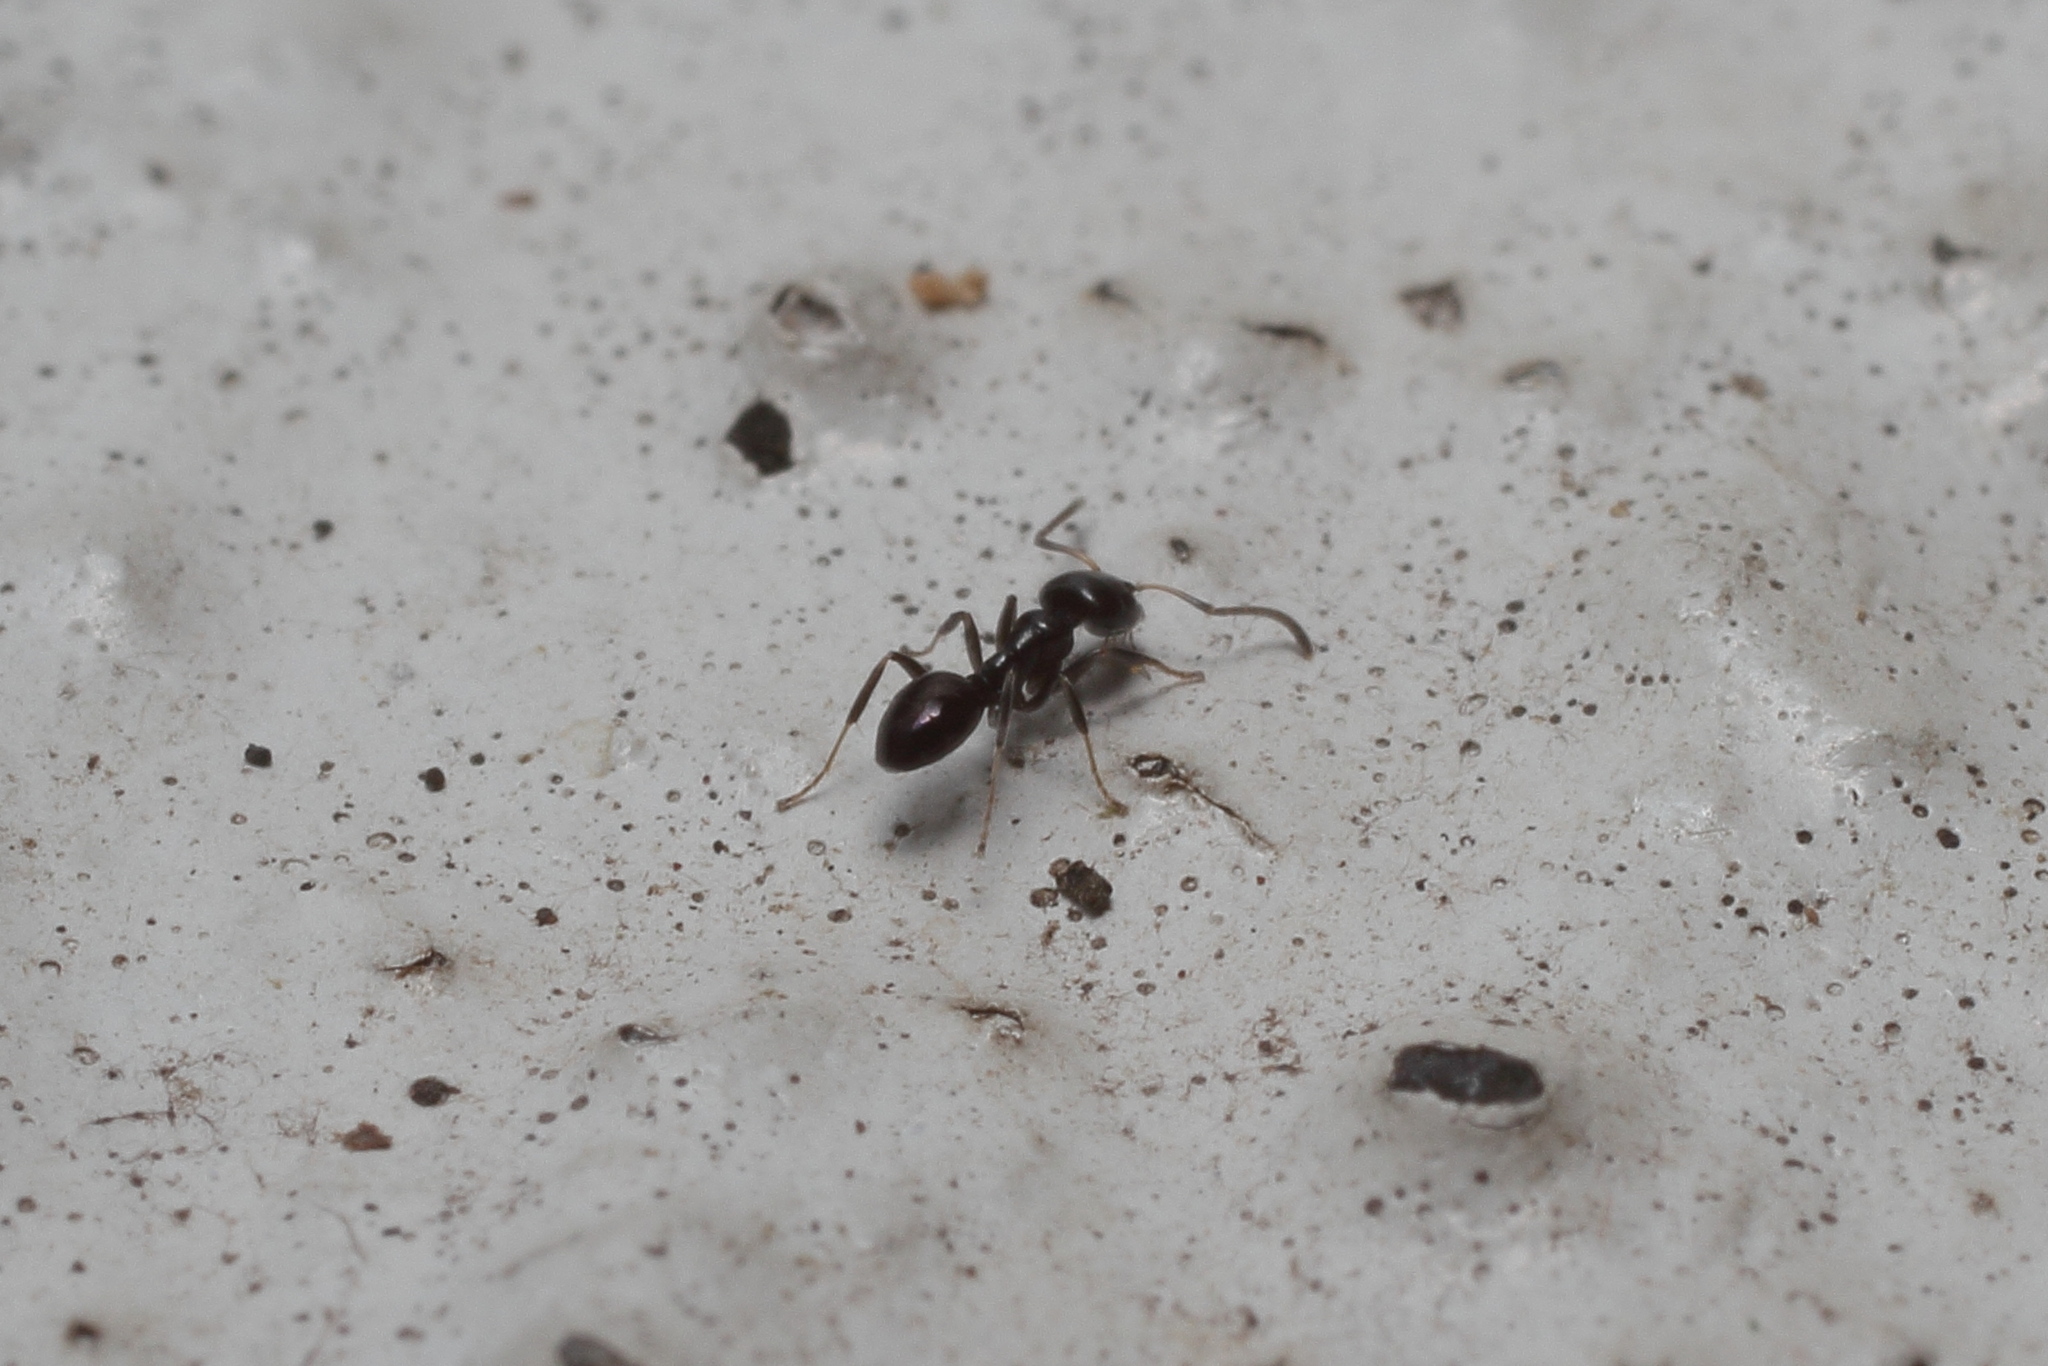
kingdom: Animalia
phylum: Arthropoda
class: Insecta
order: Hymenoptera
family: Formicidae
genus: Ochetellus
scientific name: Ochetellus glaber
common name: Ant
